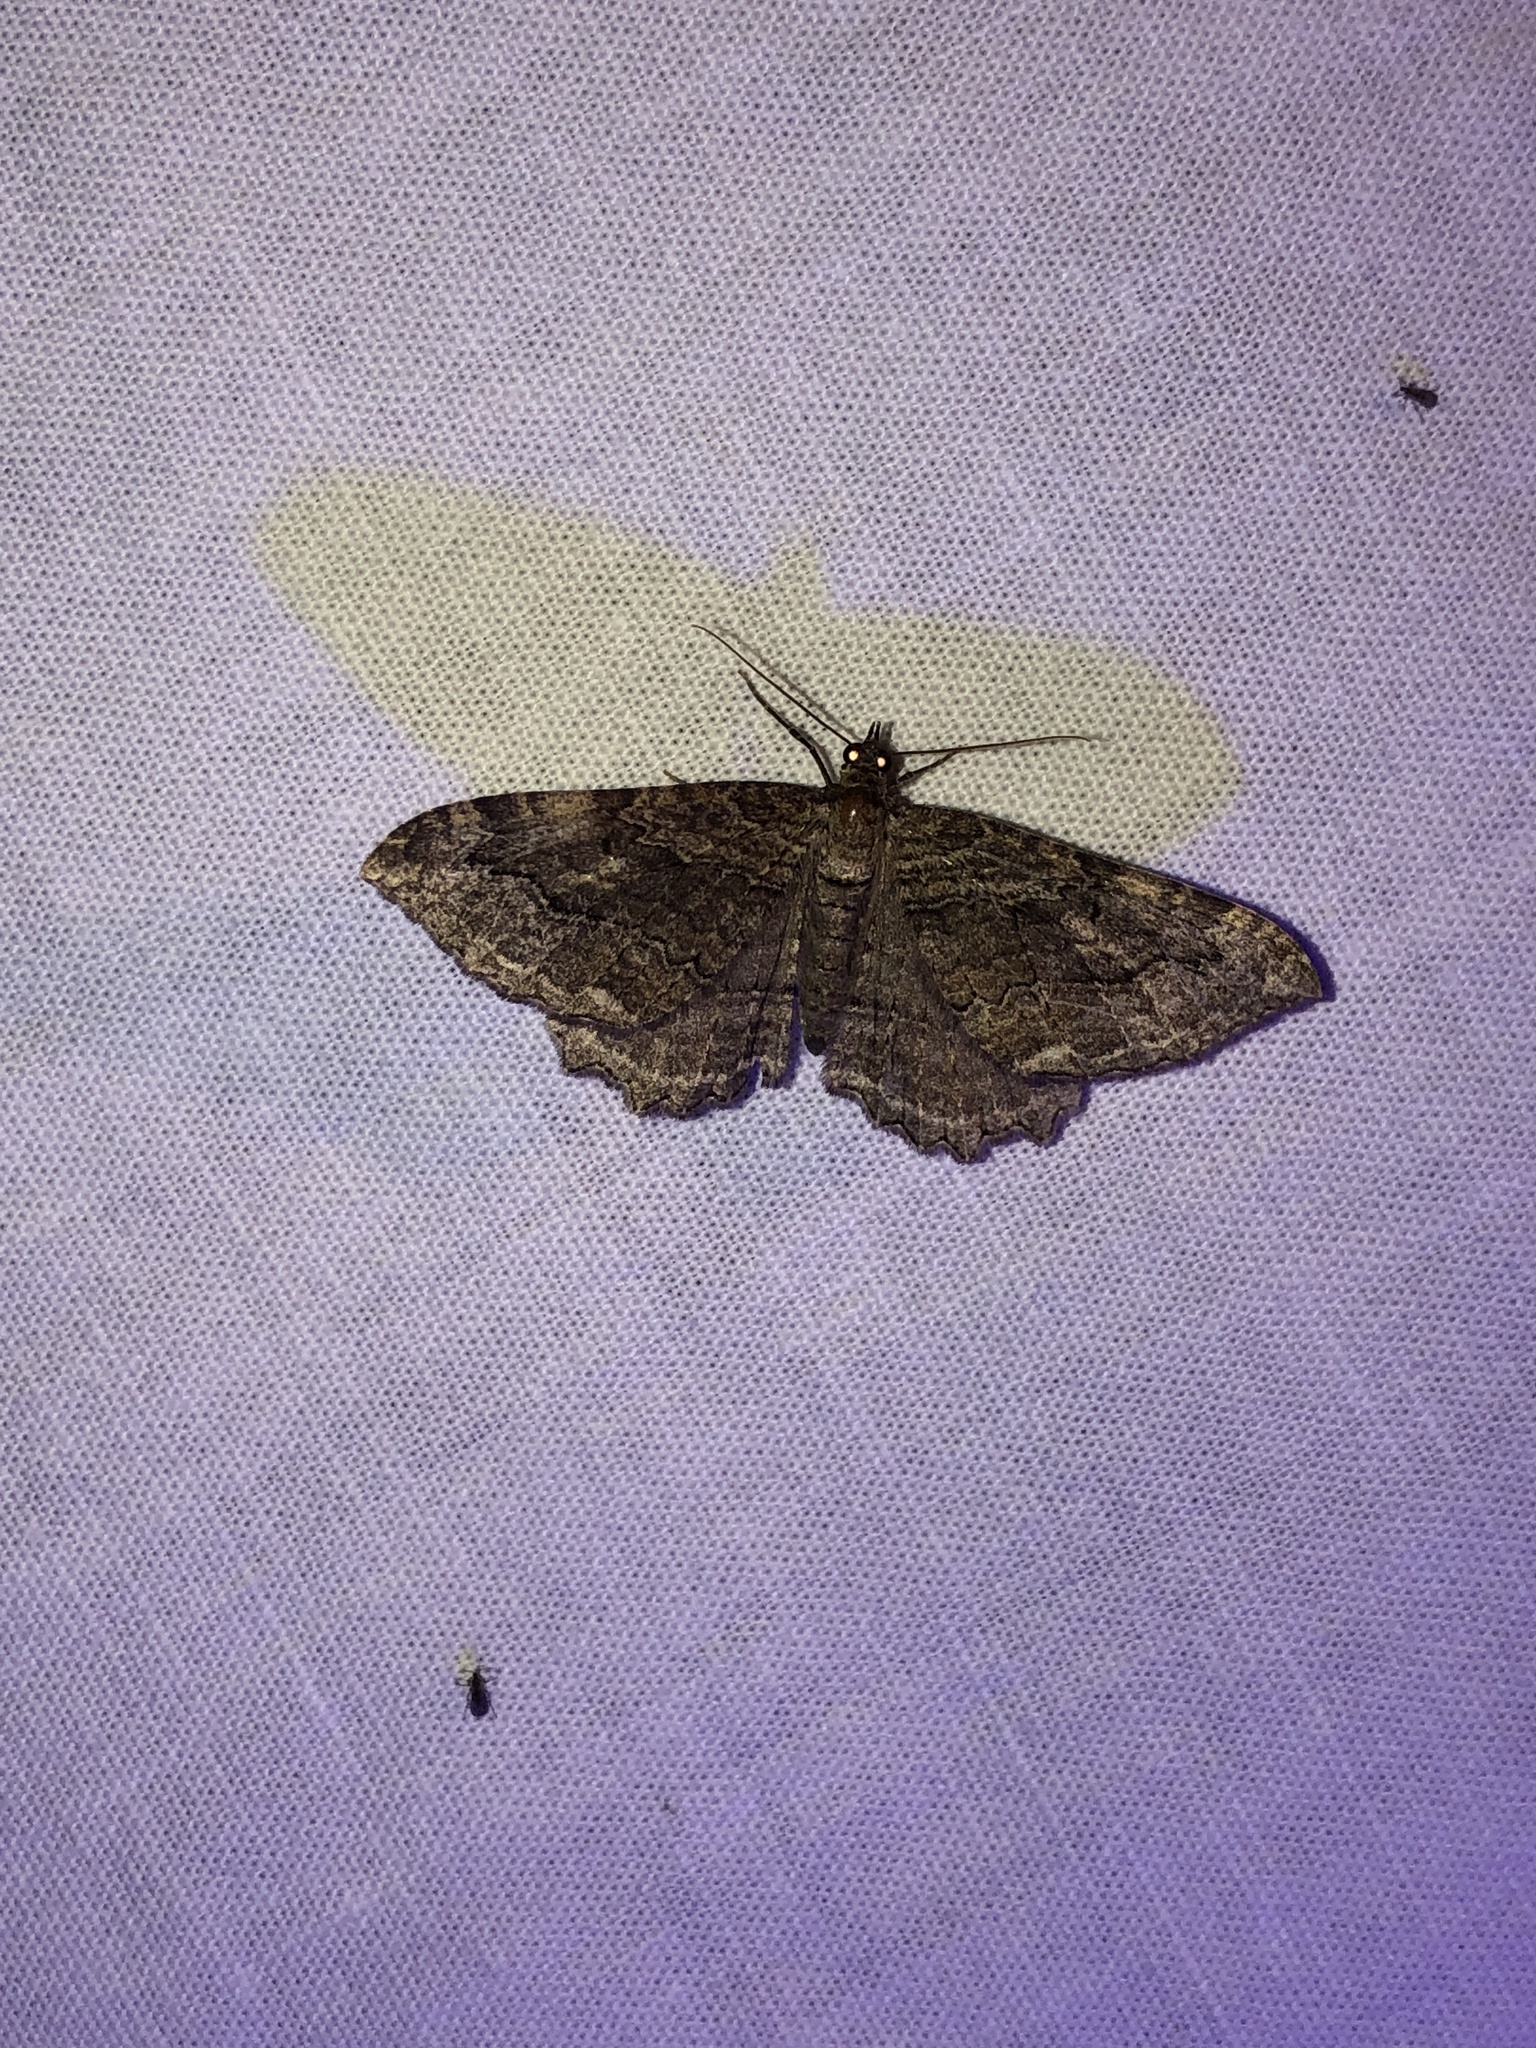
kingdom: Animalia
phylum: Arthropoda
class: Insecta
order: Lepidoptera
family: Geometridae
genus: Rheumaptera
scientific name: Rheumaptera
